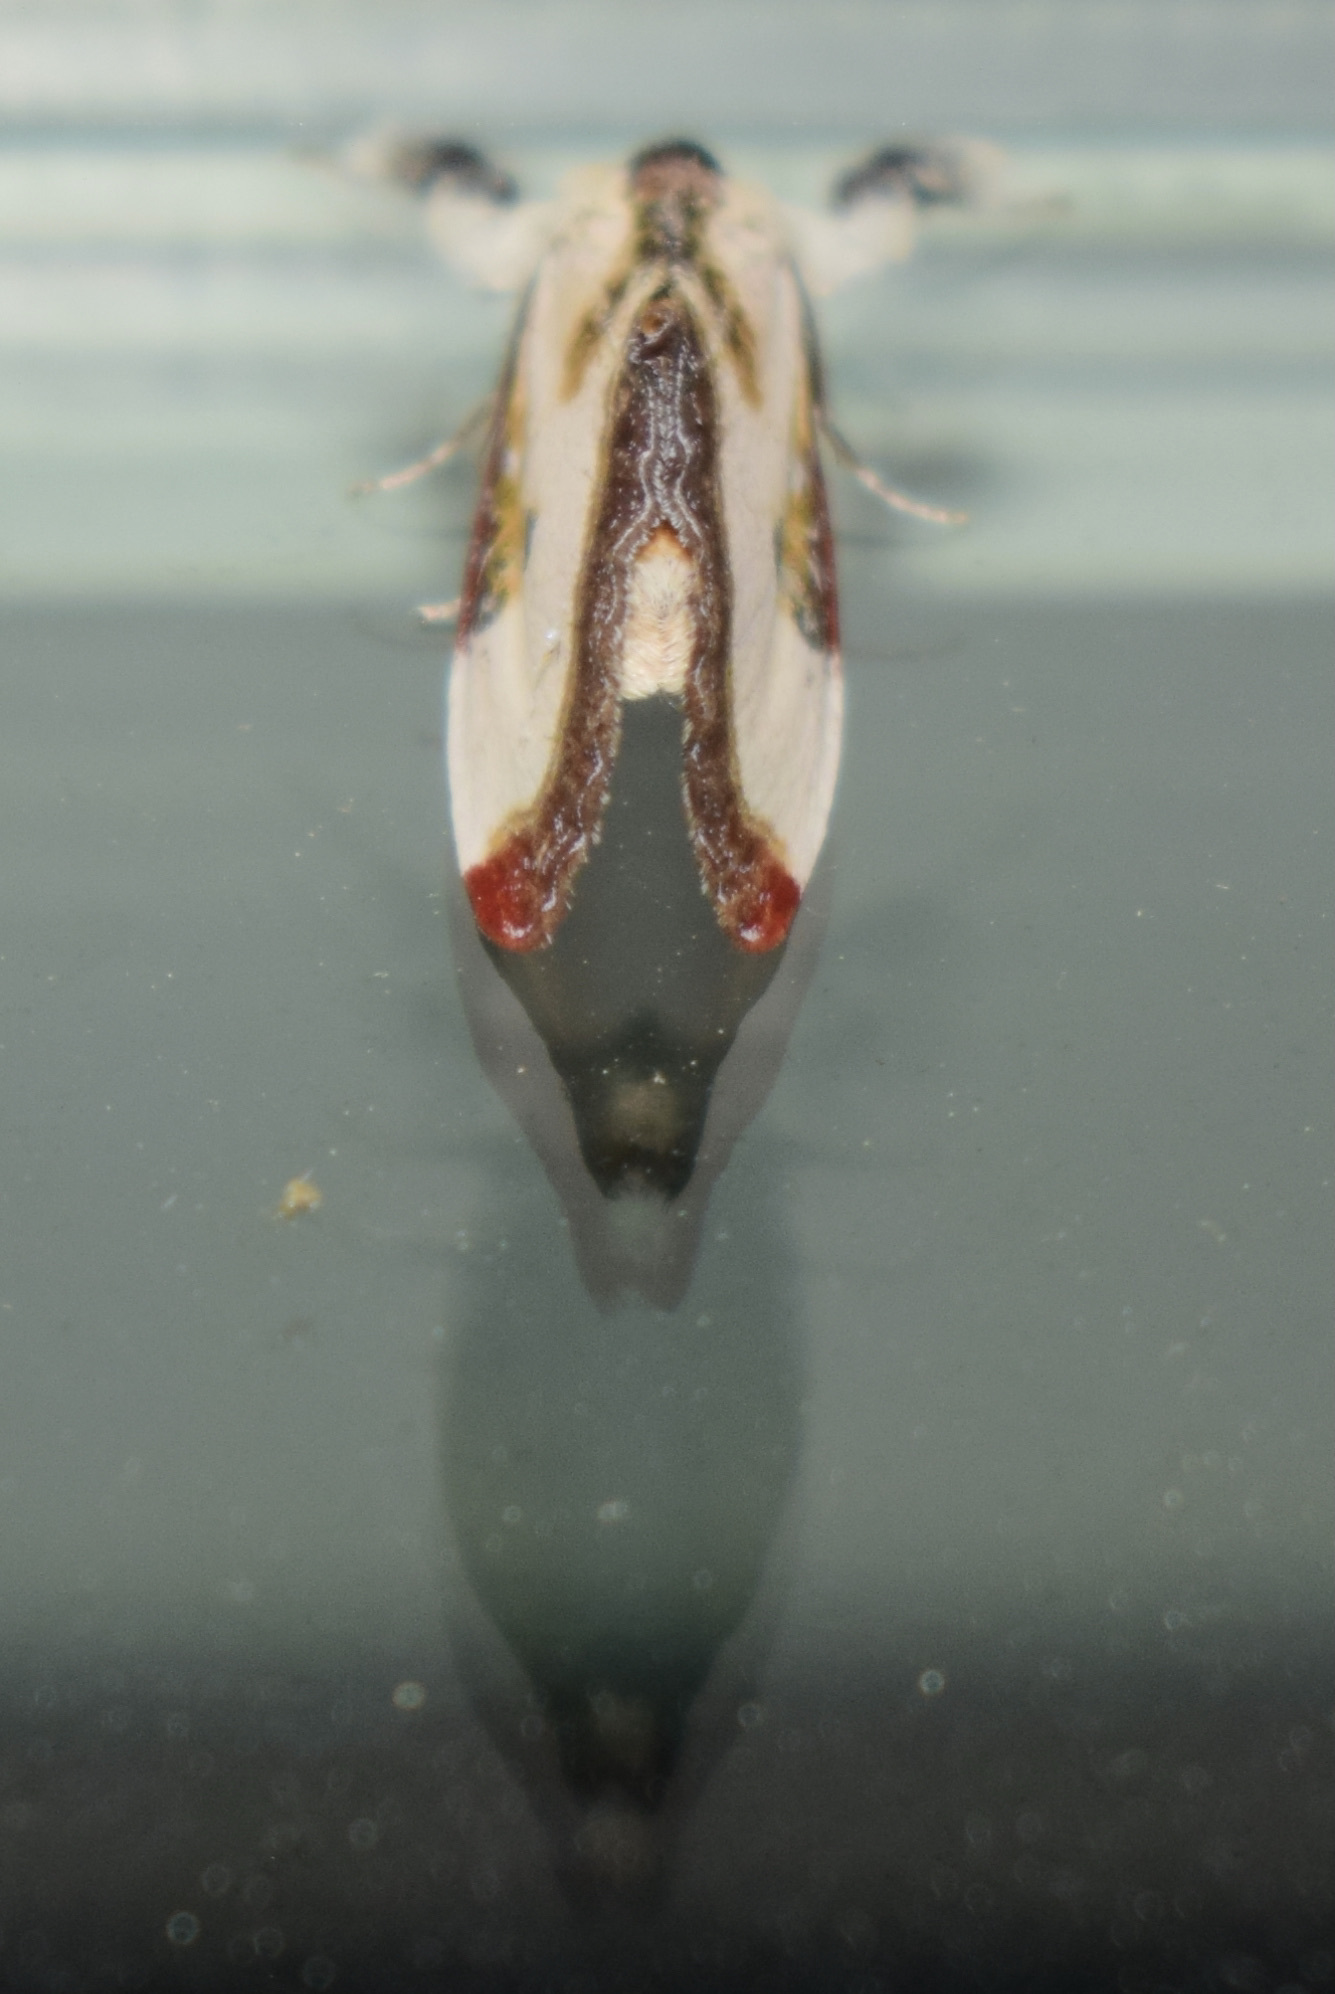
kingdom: Animalia
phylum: Arthropoda
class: Insecta
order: Lepidoptera
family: Noctuidae
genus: Eudryas
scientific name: Eudryas grata
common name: Beautiful wood-nymph
